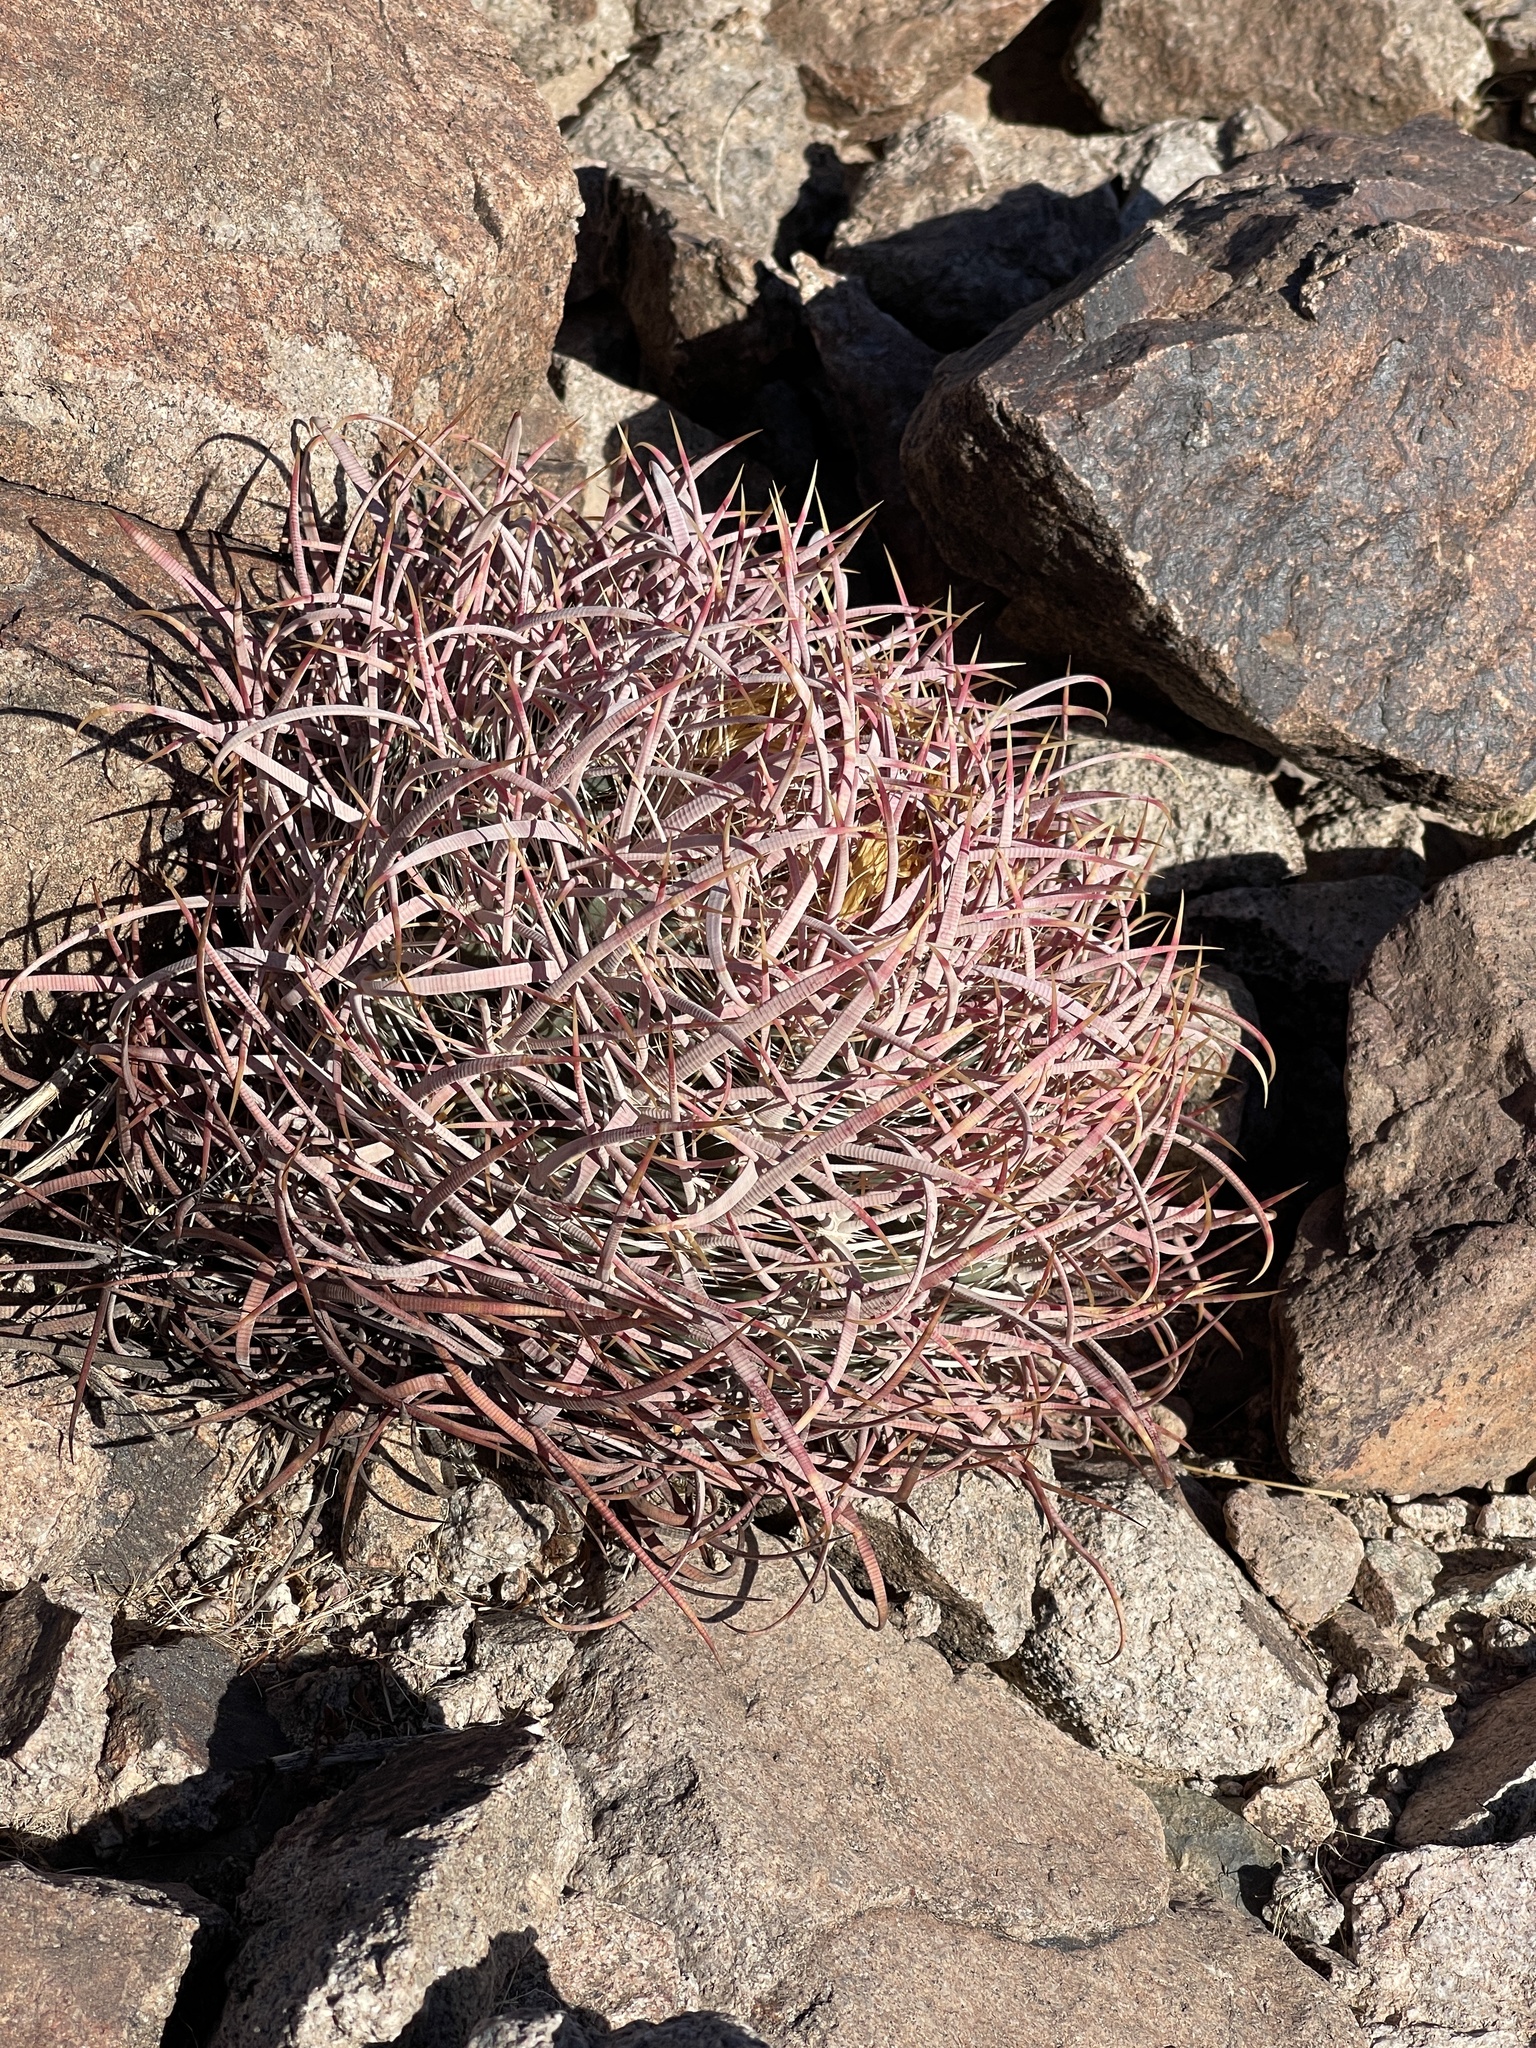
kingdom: Plantae
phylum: Tracheophyta
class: Magnoliopsida
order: Caryophyllales
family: Cactaceae
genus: Ferocactus
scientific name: Ferocactus cylindraceus
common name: California barrel cactus
